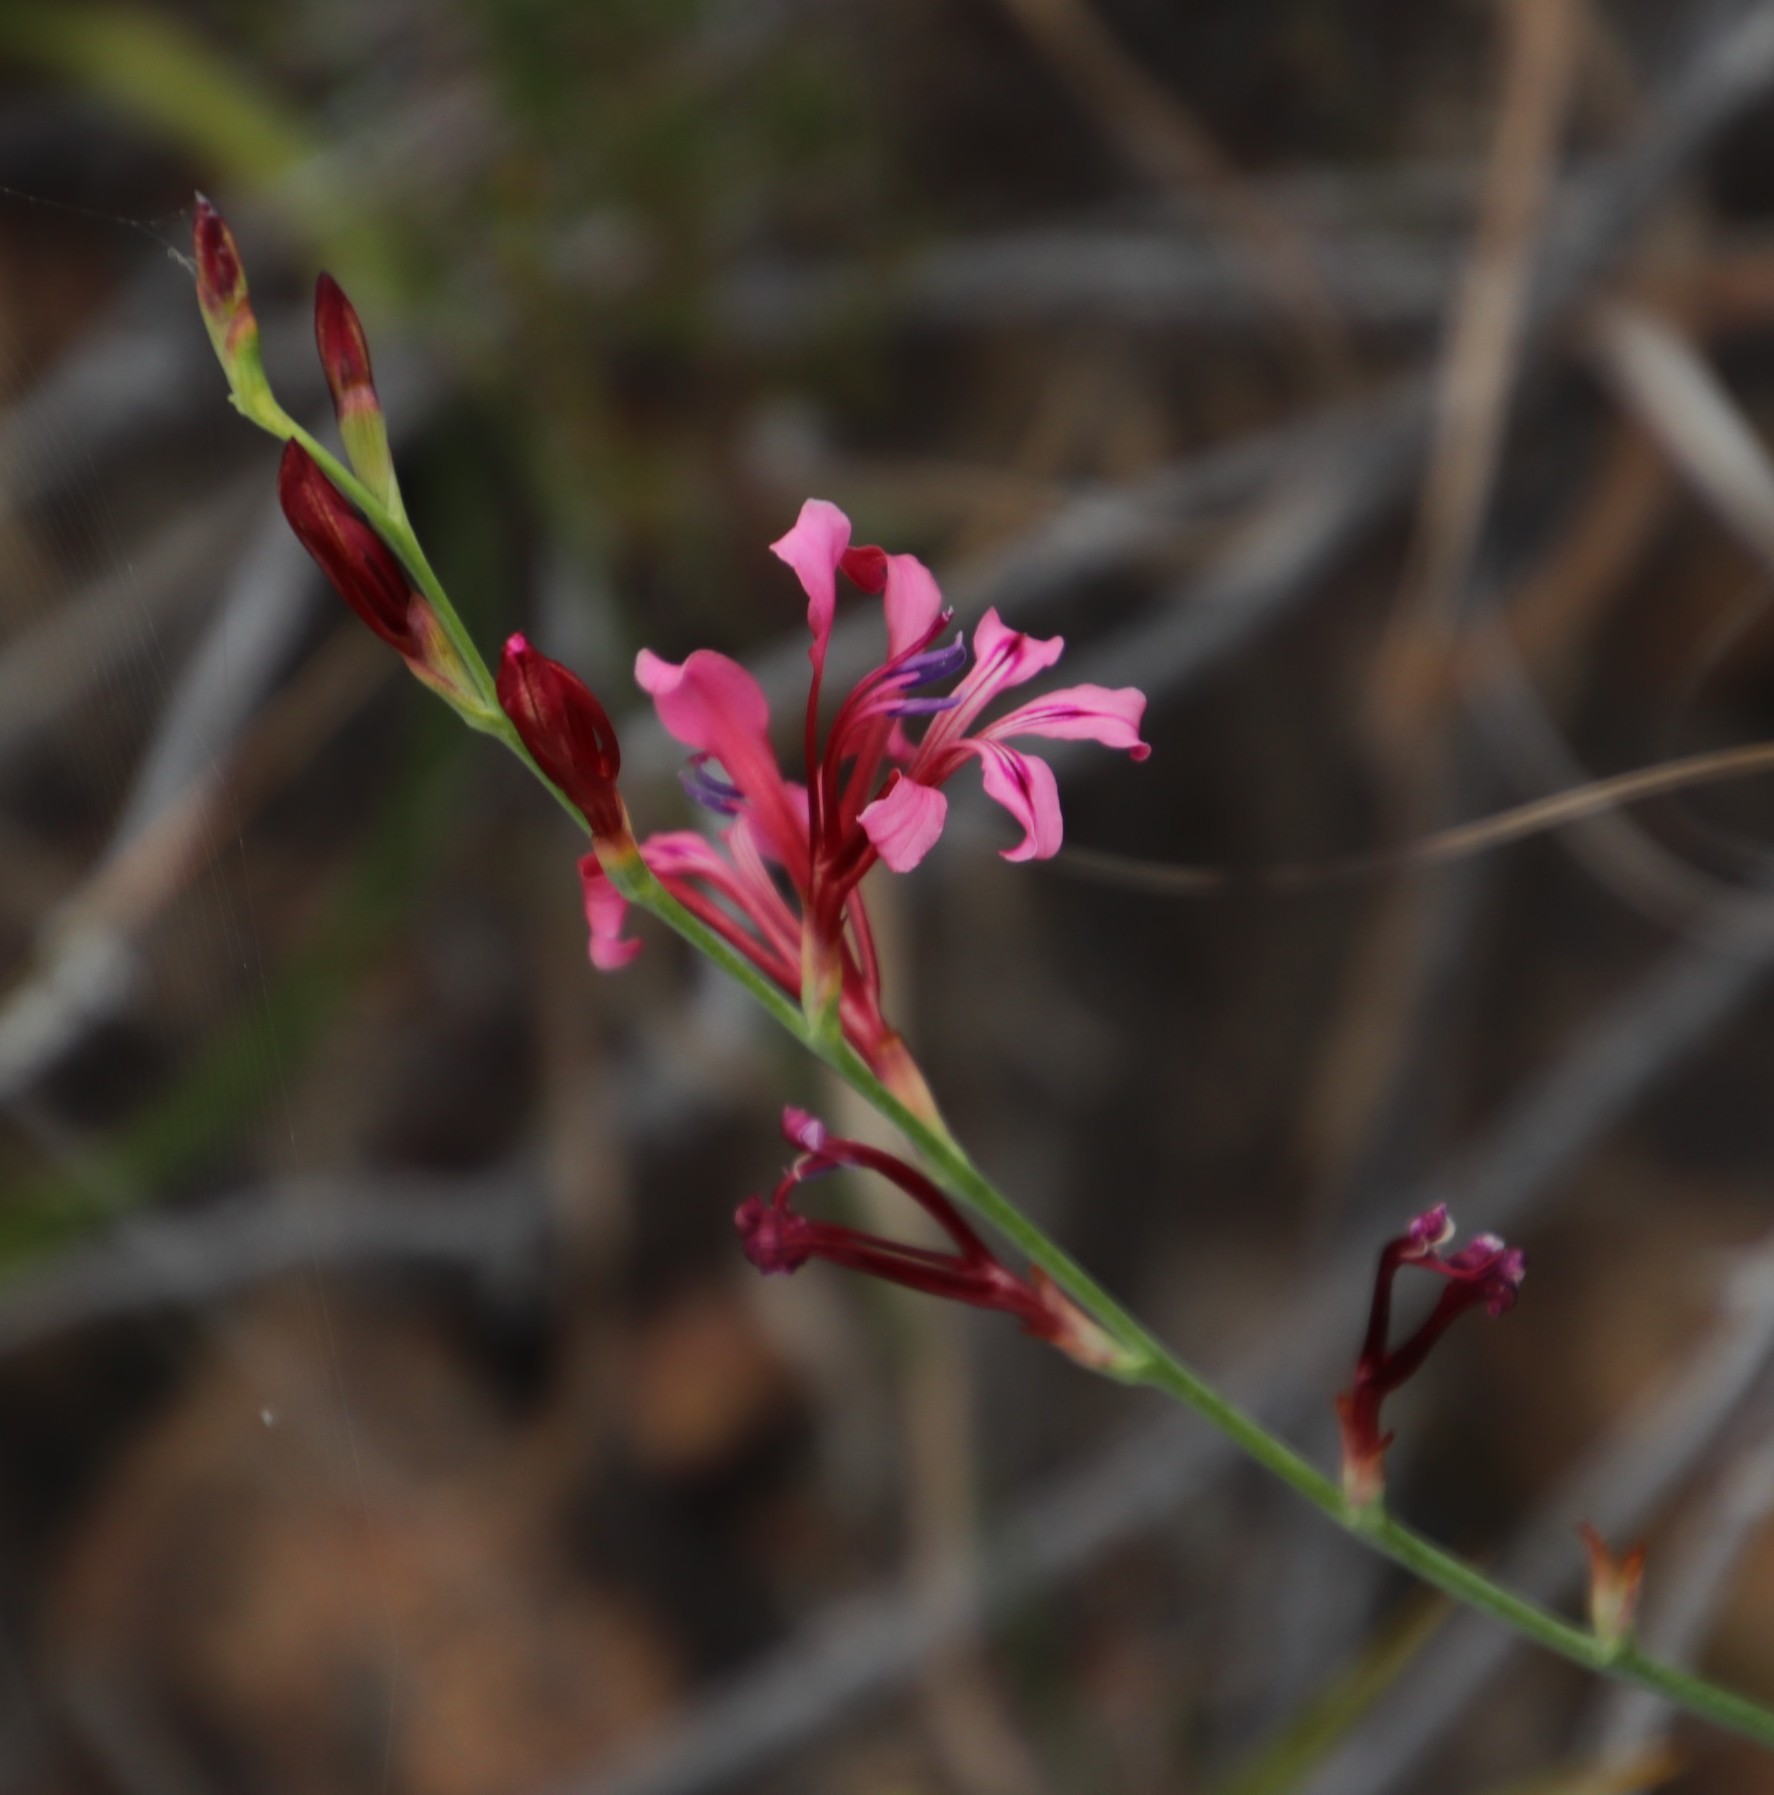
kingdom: Plantae
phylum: Tracheophyta
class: Liliopsida
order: Asparagales
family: Iridaceae
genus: Tritoniopsis
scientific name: Tritoniopsis lata
